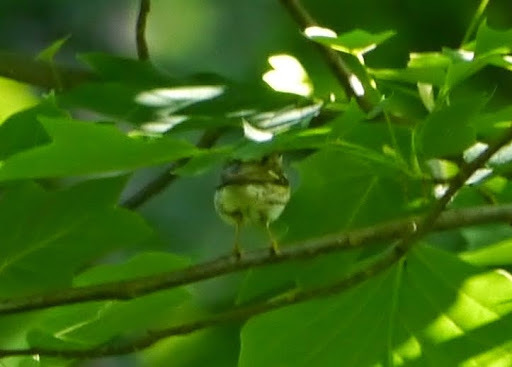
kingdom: Animalia
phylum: Chordata
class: Aves
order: Passeriformes
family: Parulidae
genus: Setophaga
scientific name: Setophaga striata
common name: Blackpoll warbler
